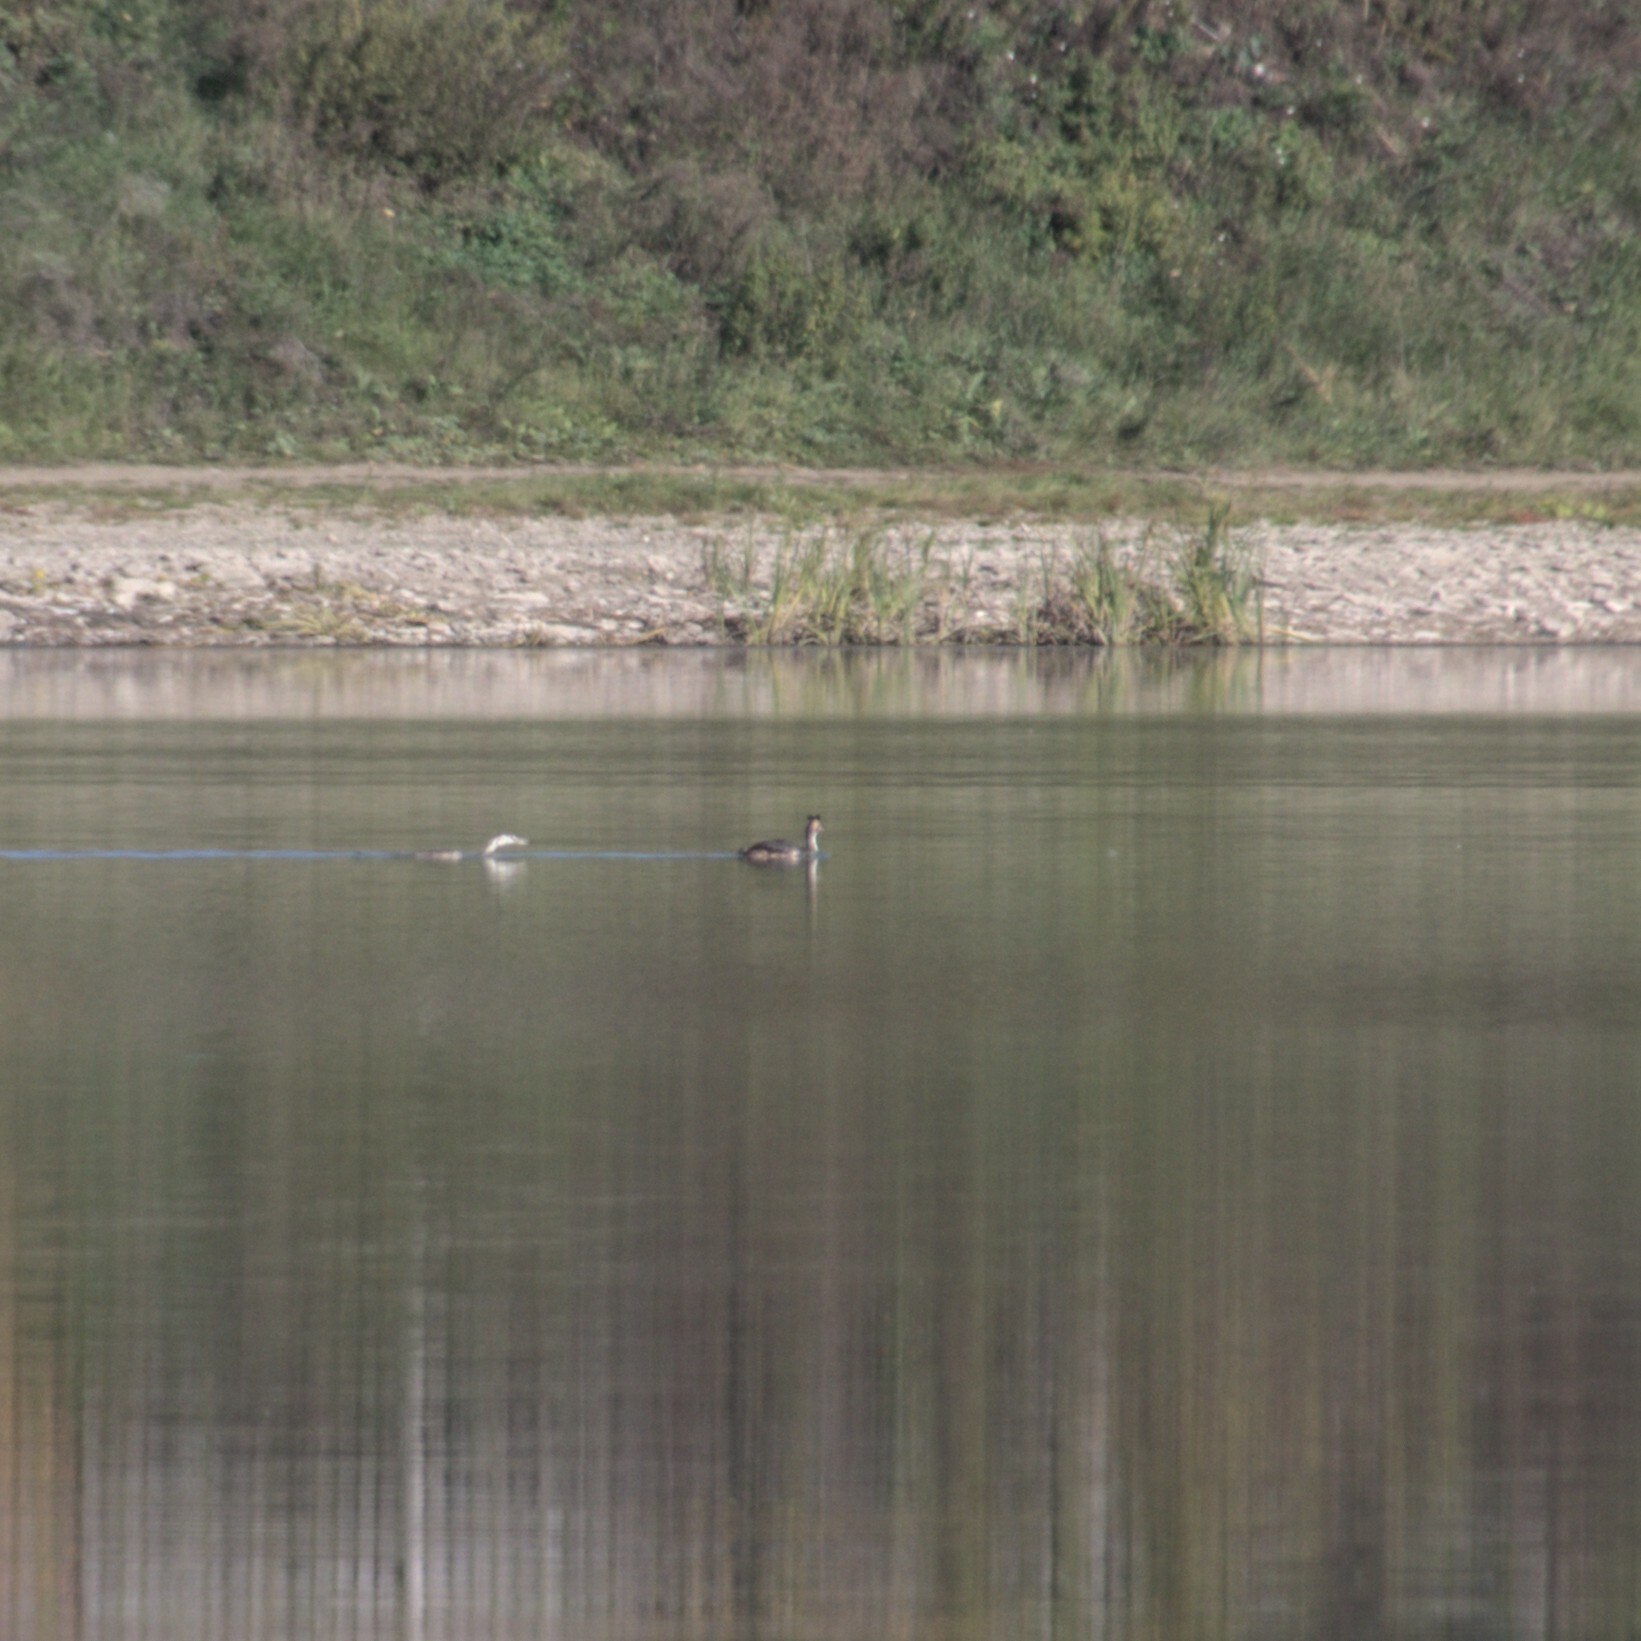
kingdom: Animalia
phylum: Chordata
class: Aves
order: Podicipediformes
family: Podicipedidae
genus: Podiceps
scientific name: Podiceps cristatus
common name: Great crested grebe
